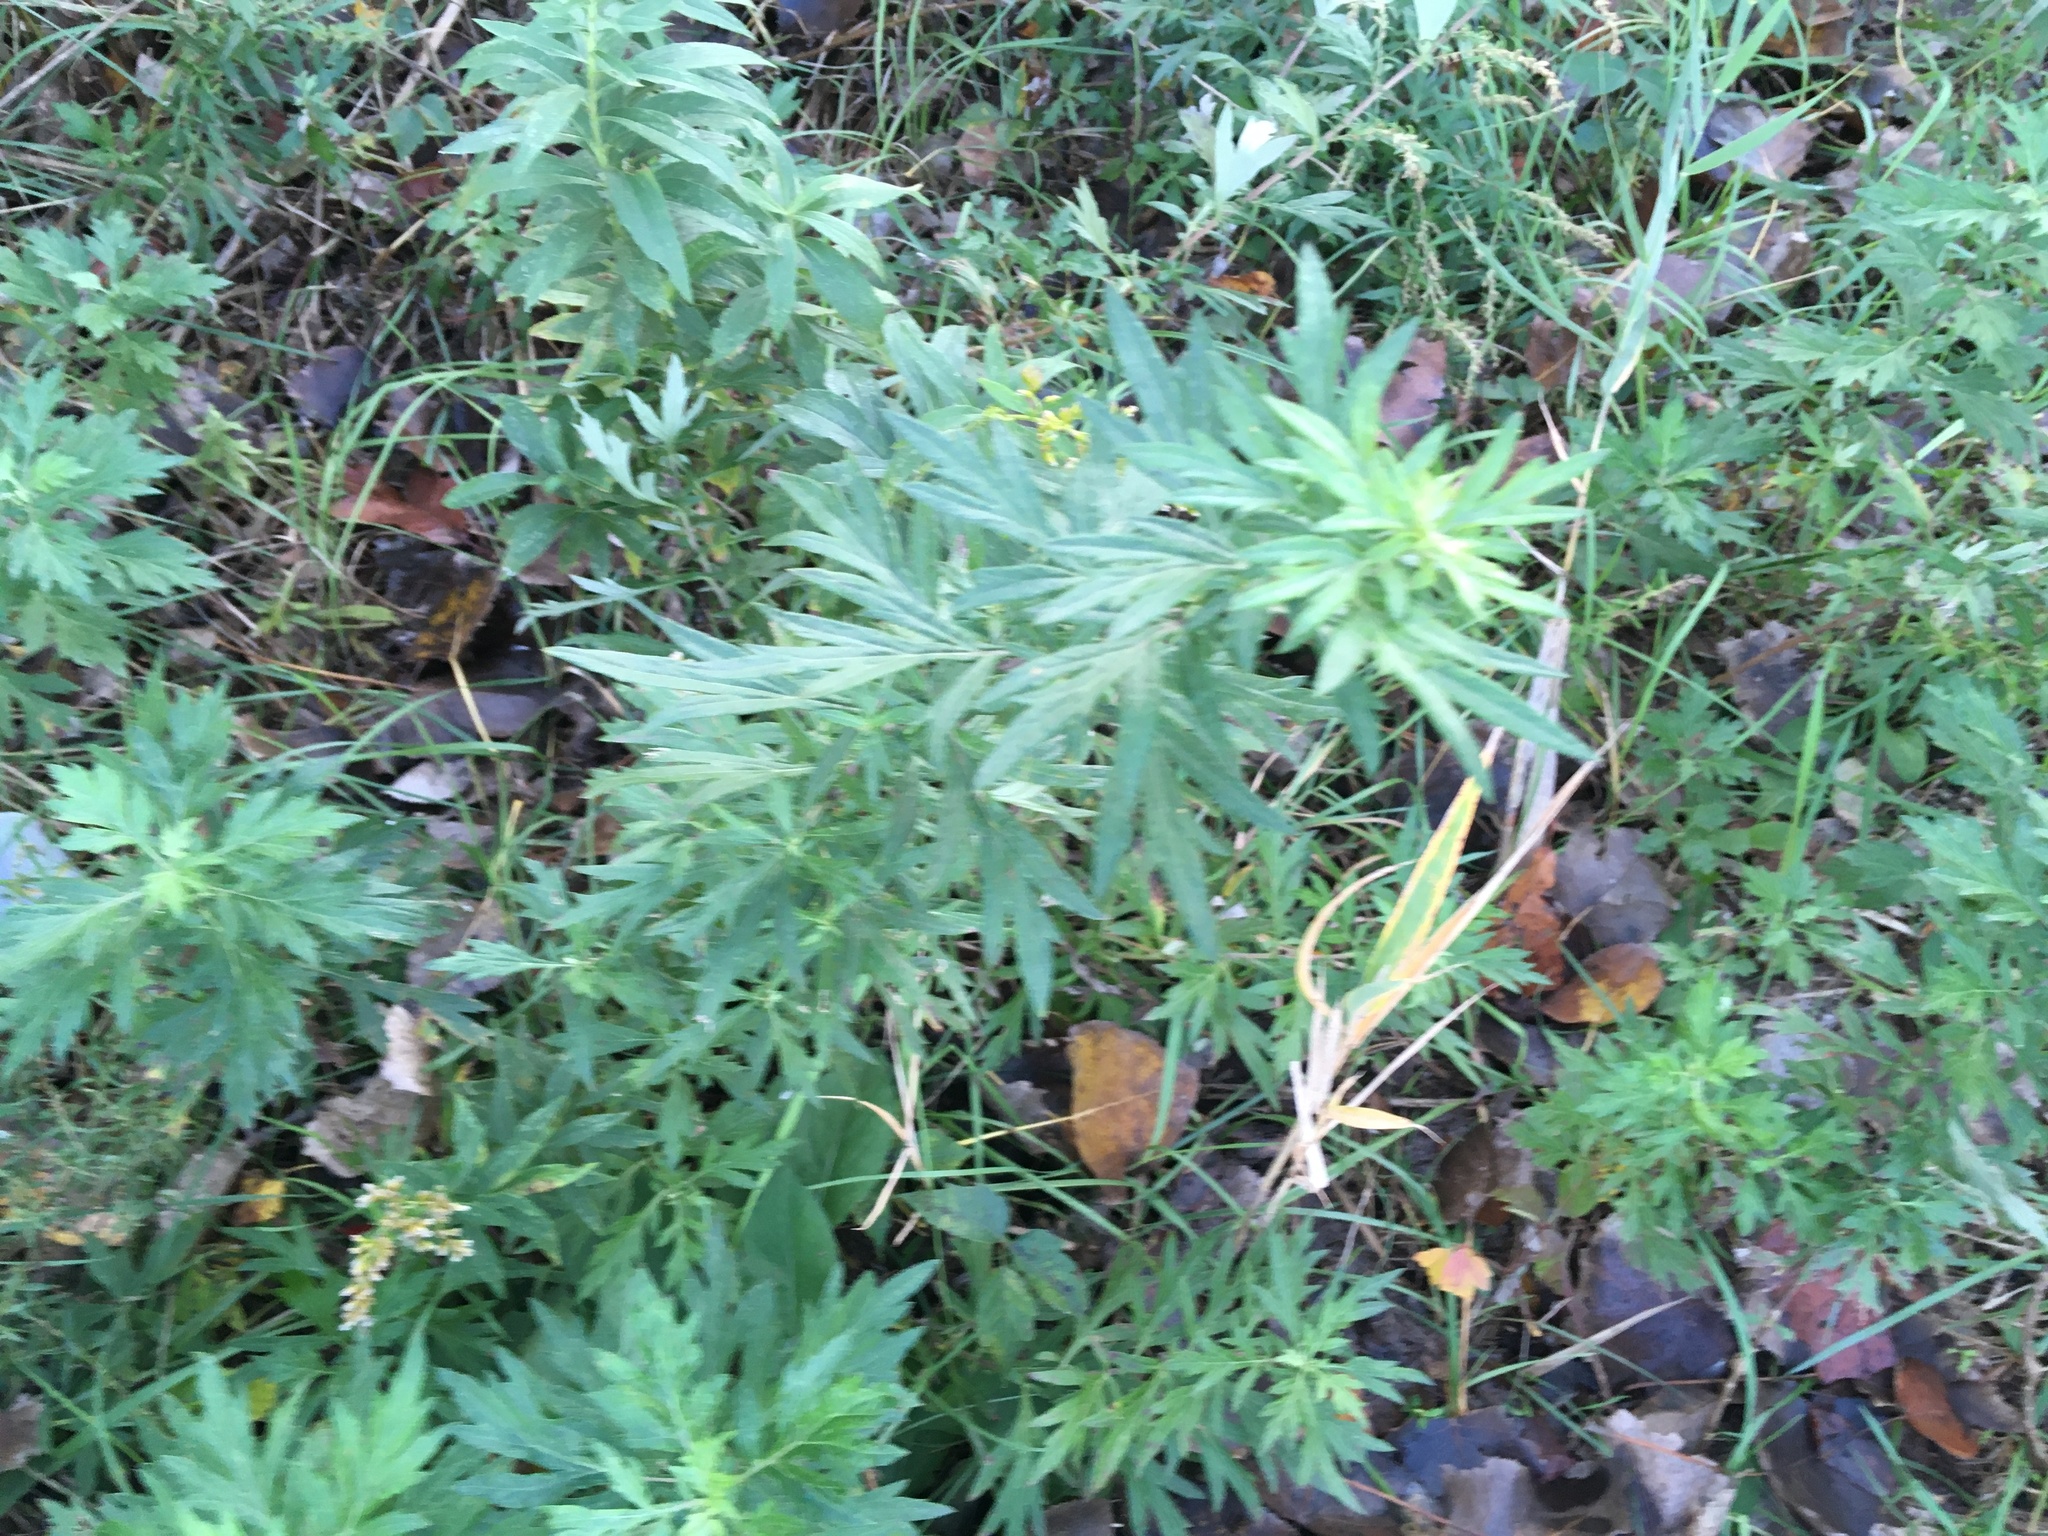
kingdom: Plantae
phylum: Tracheophyta
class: Magnoliopsida
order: Asterales
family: Asteraceae
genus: Artemisia
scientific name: Artemisia vulgaris
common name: Mugwort
